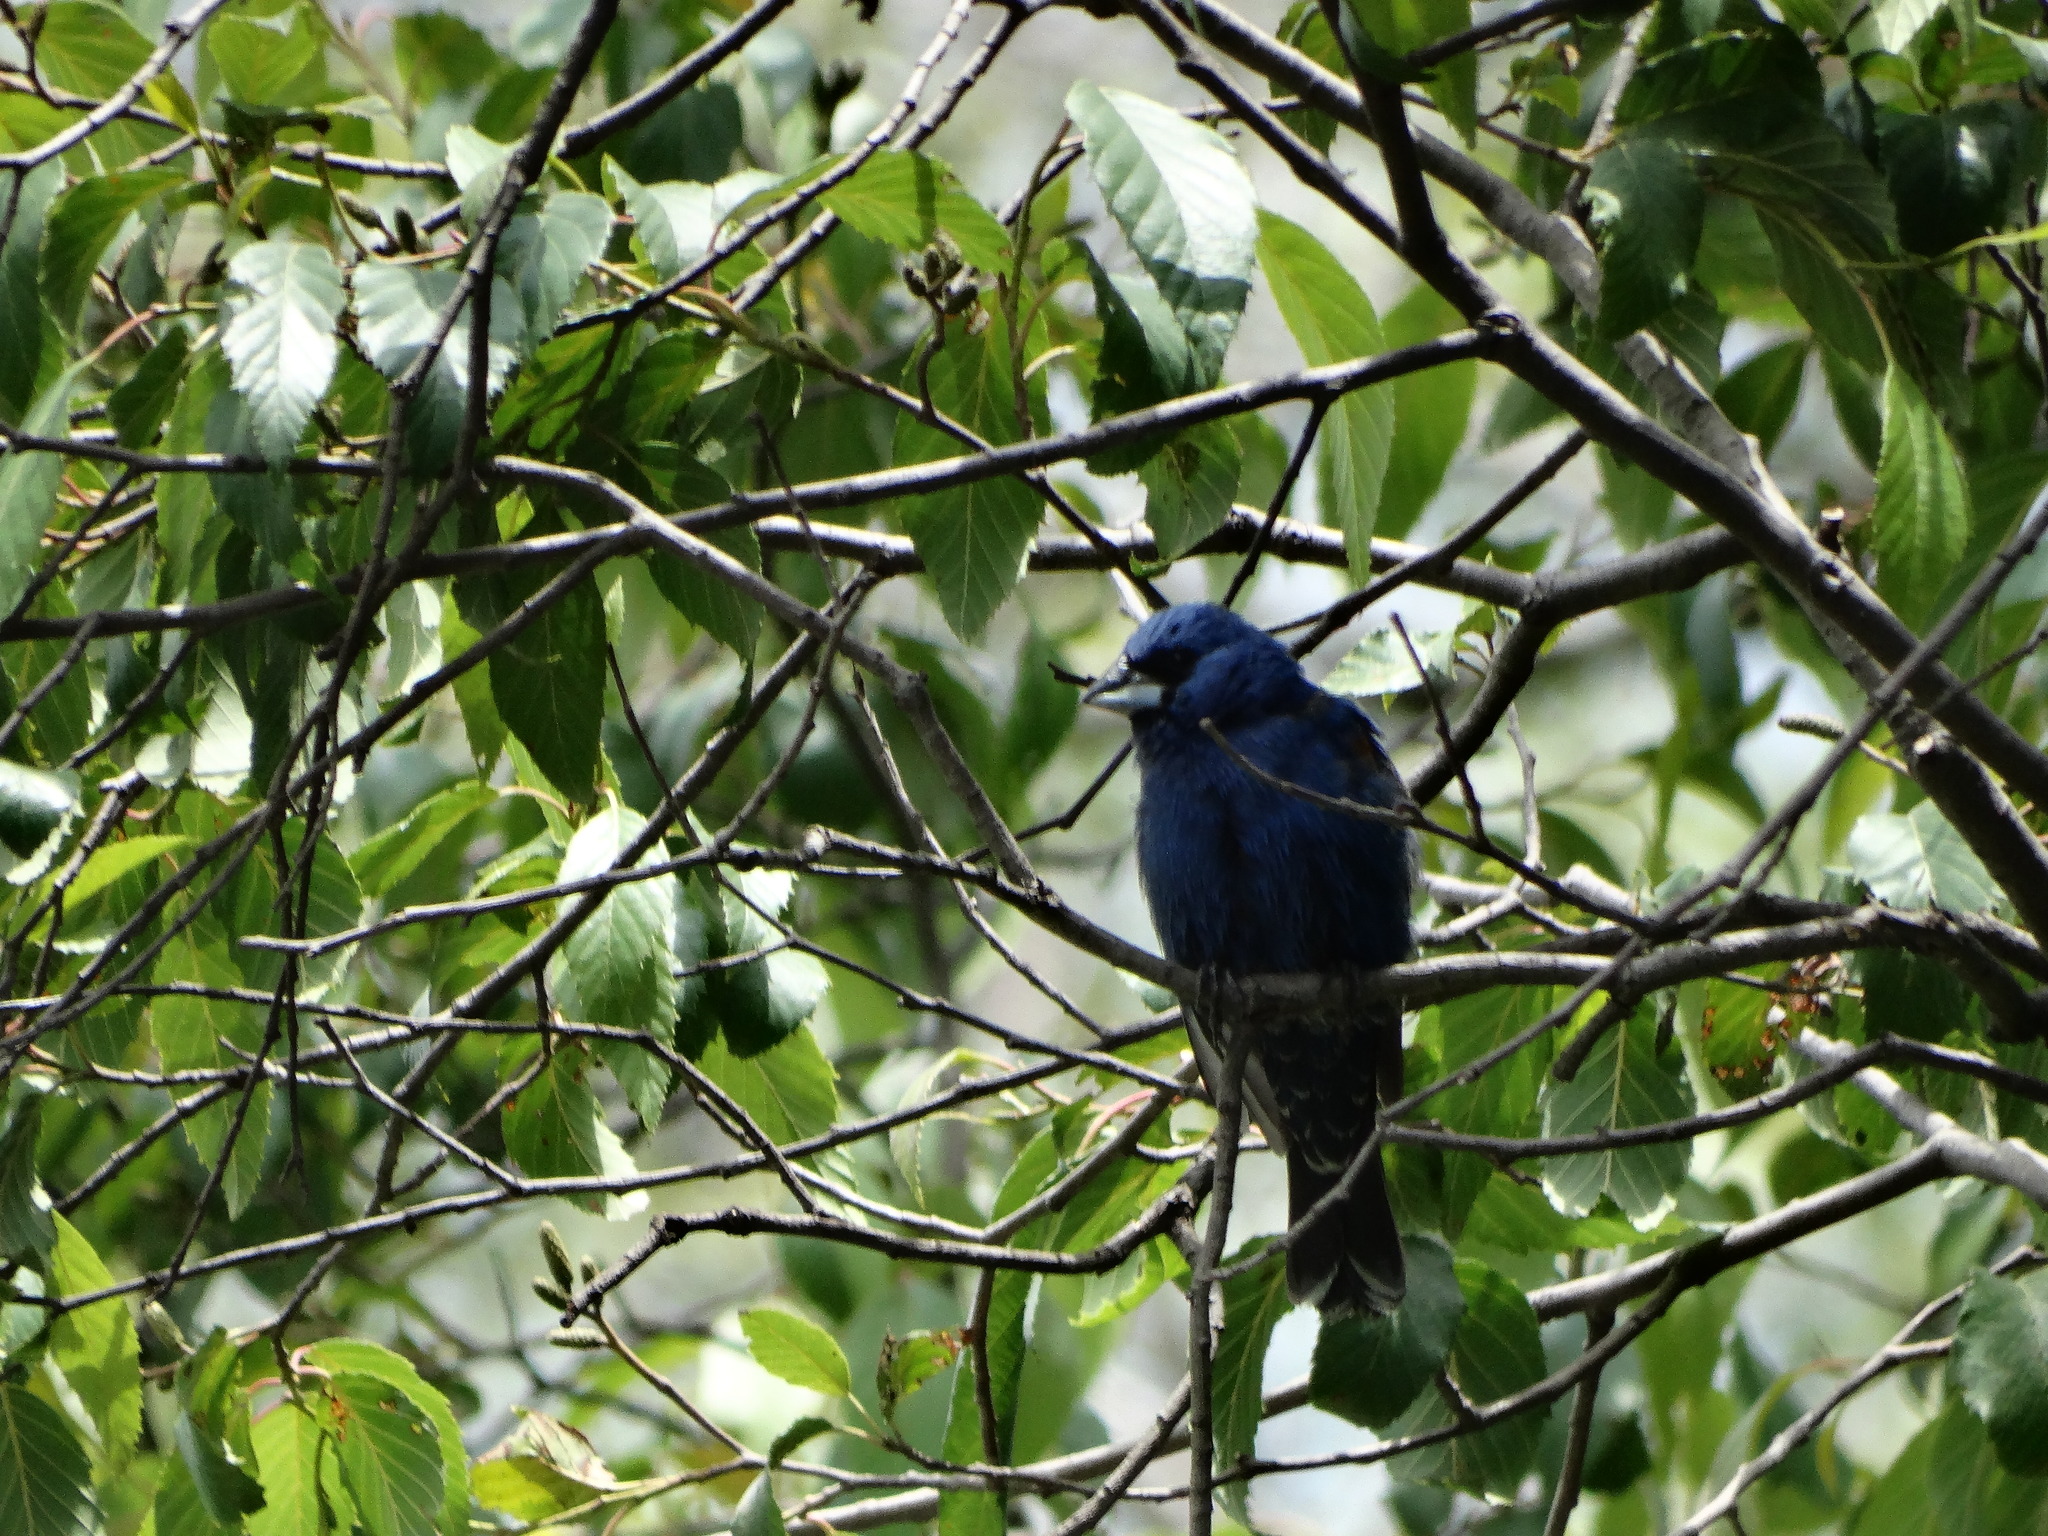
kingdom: Animalia
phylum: Chordata
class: Aves
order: Passeriformes
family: Cardinalidae
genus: Passerina
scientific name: Passerina caerulea
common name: Blue grosbeak
